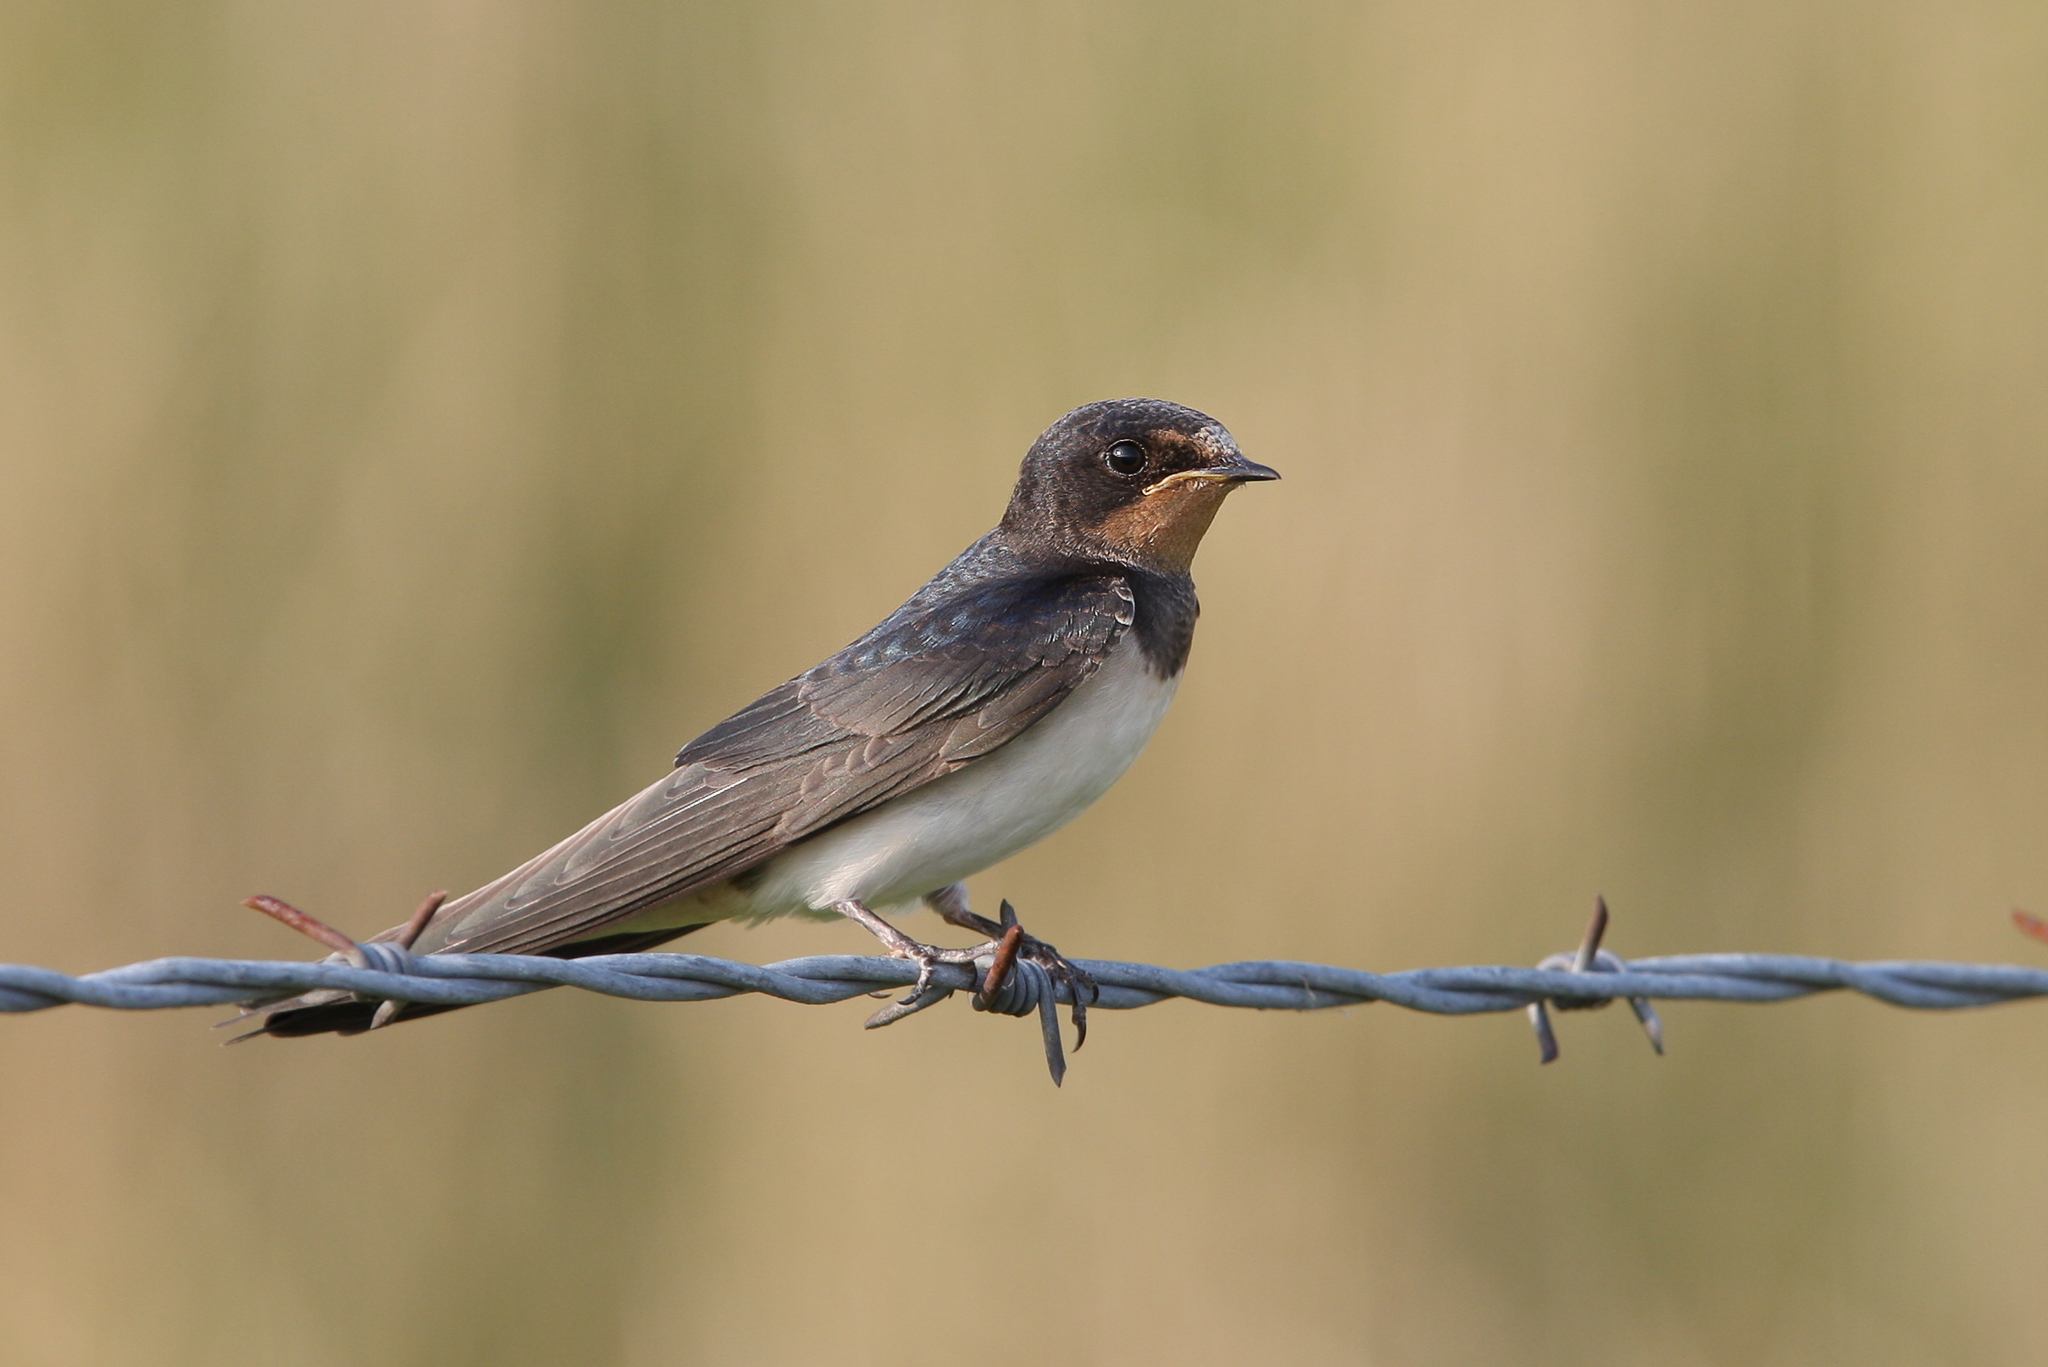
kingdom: Animalia
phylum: Chordata
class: Aves
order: Passeriformes
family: Hirundinidae
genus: Hirundo
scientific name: Hirundo rustica
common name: Barn swallow
